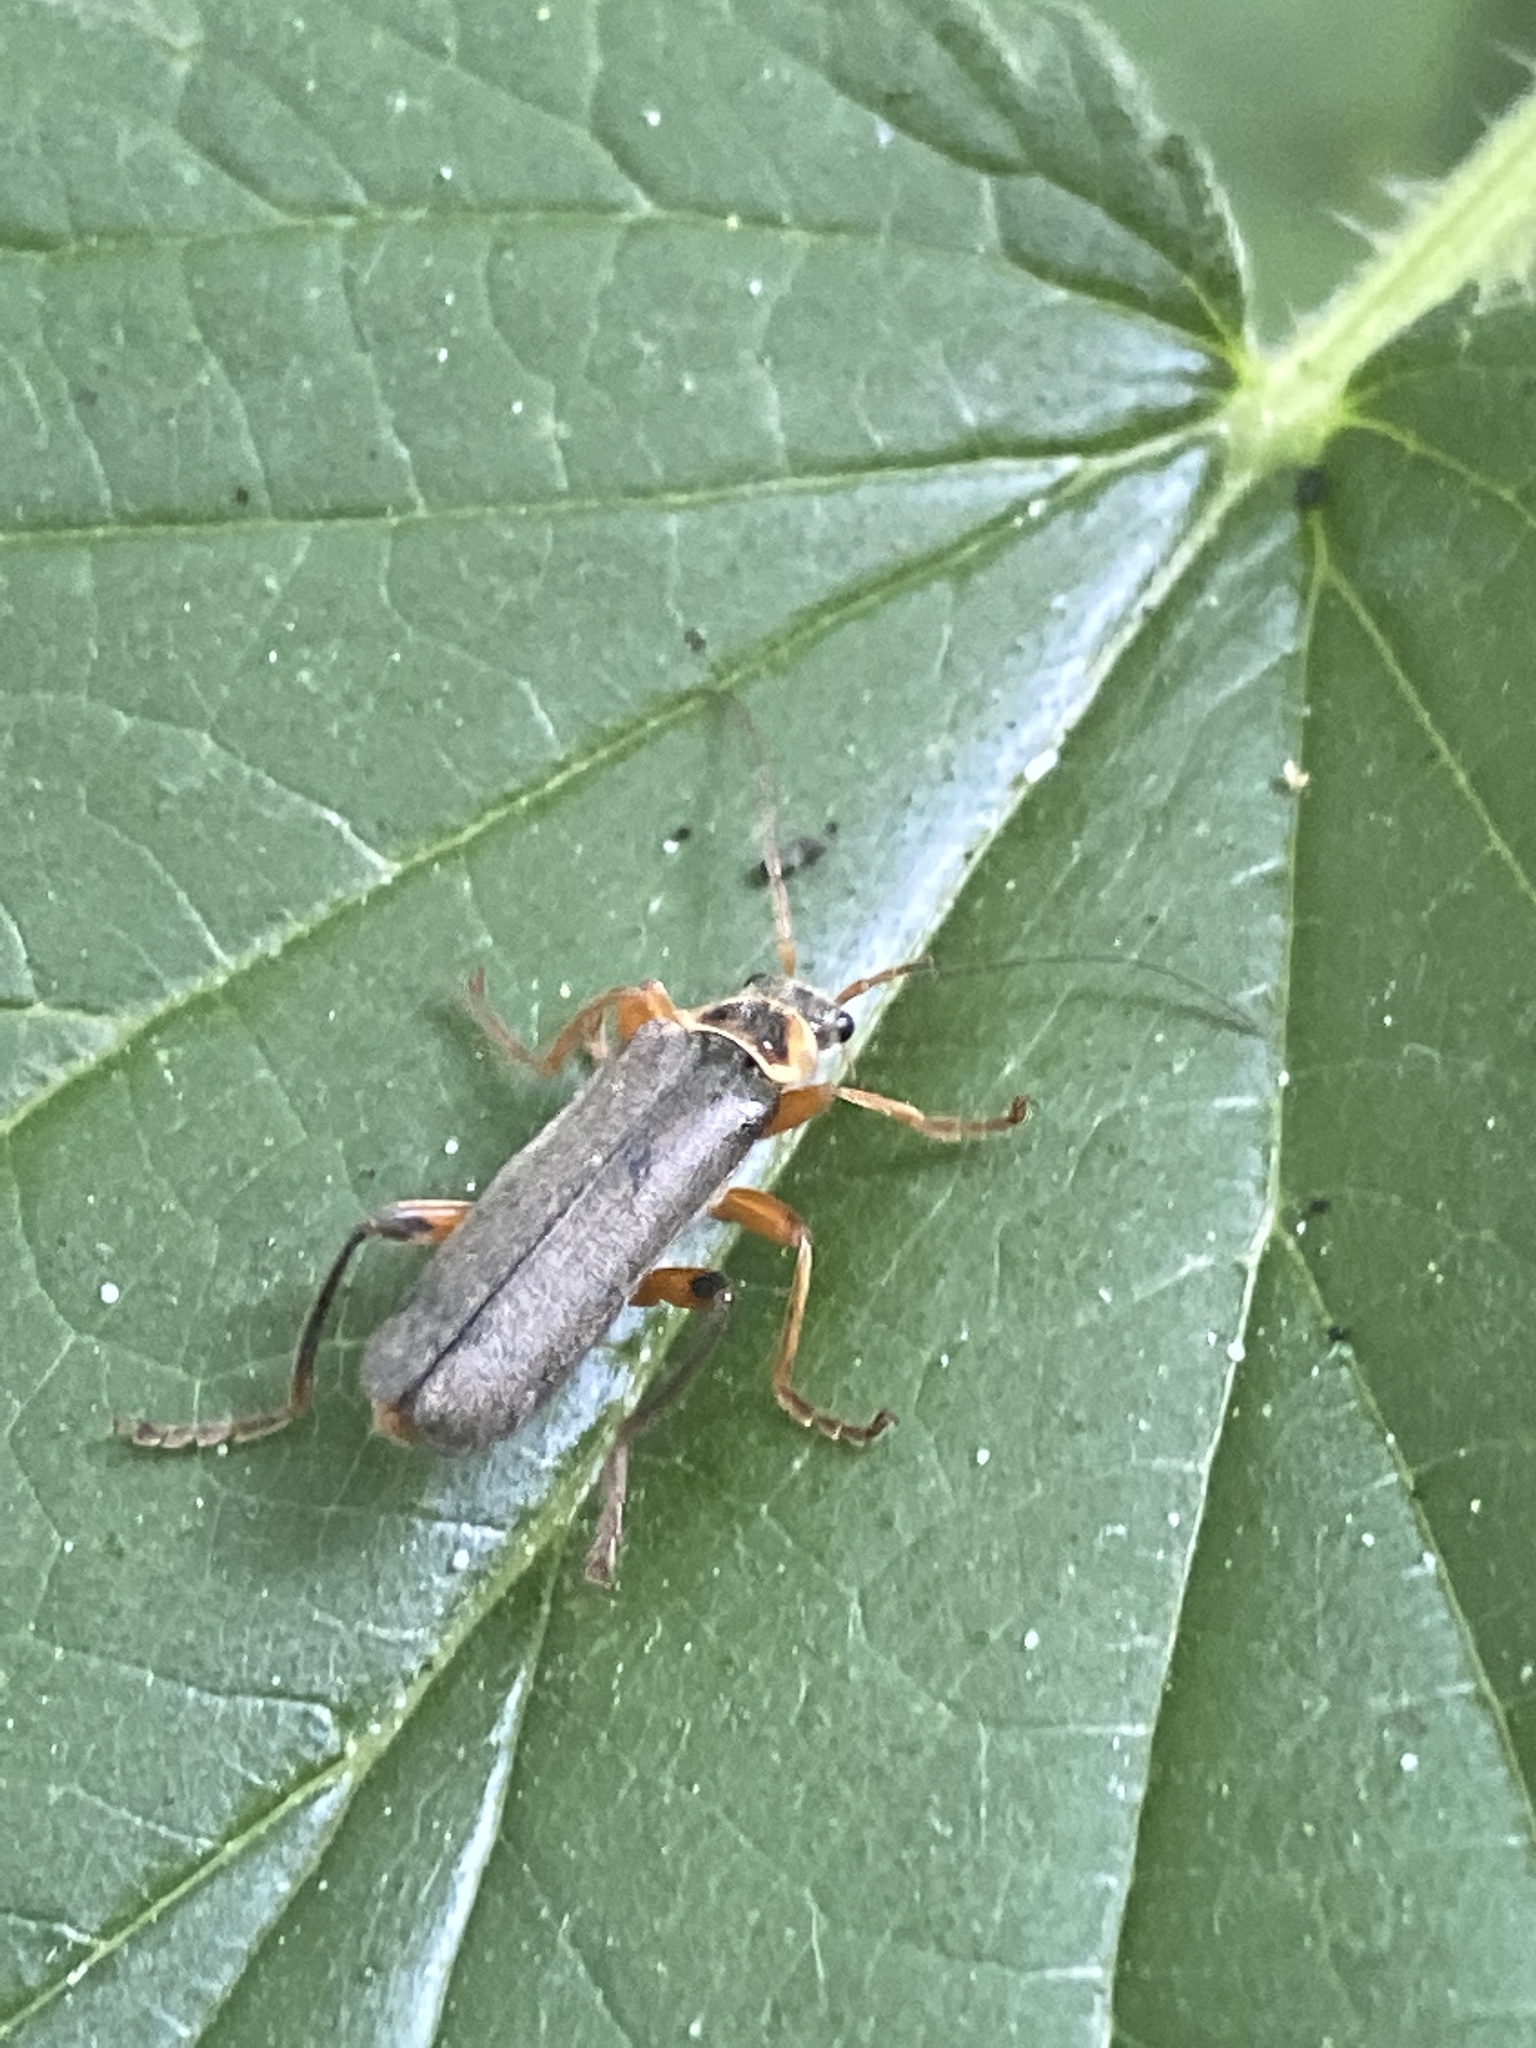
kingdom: Animalia
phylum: Arthropoda
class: Insecta
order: Coleoptera
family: Cantharidae
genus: Cantharis
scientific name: Cantharis nigricans
